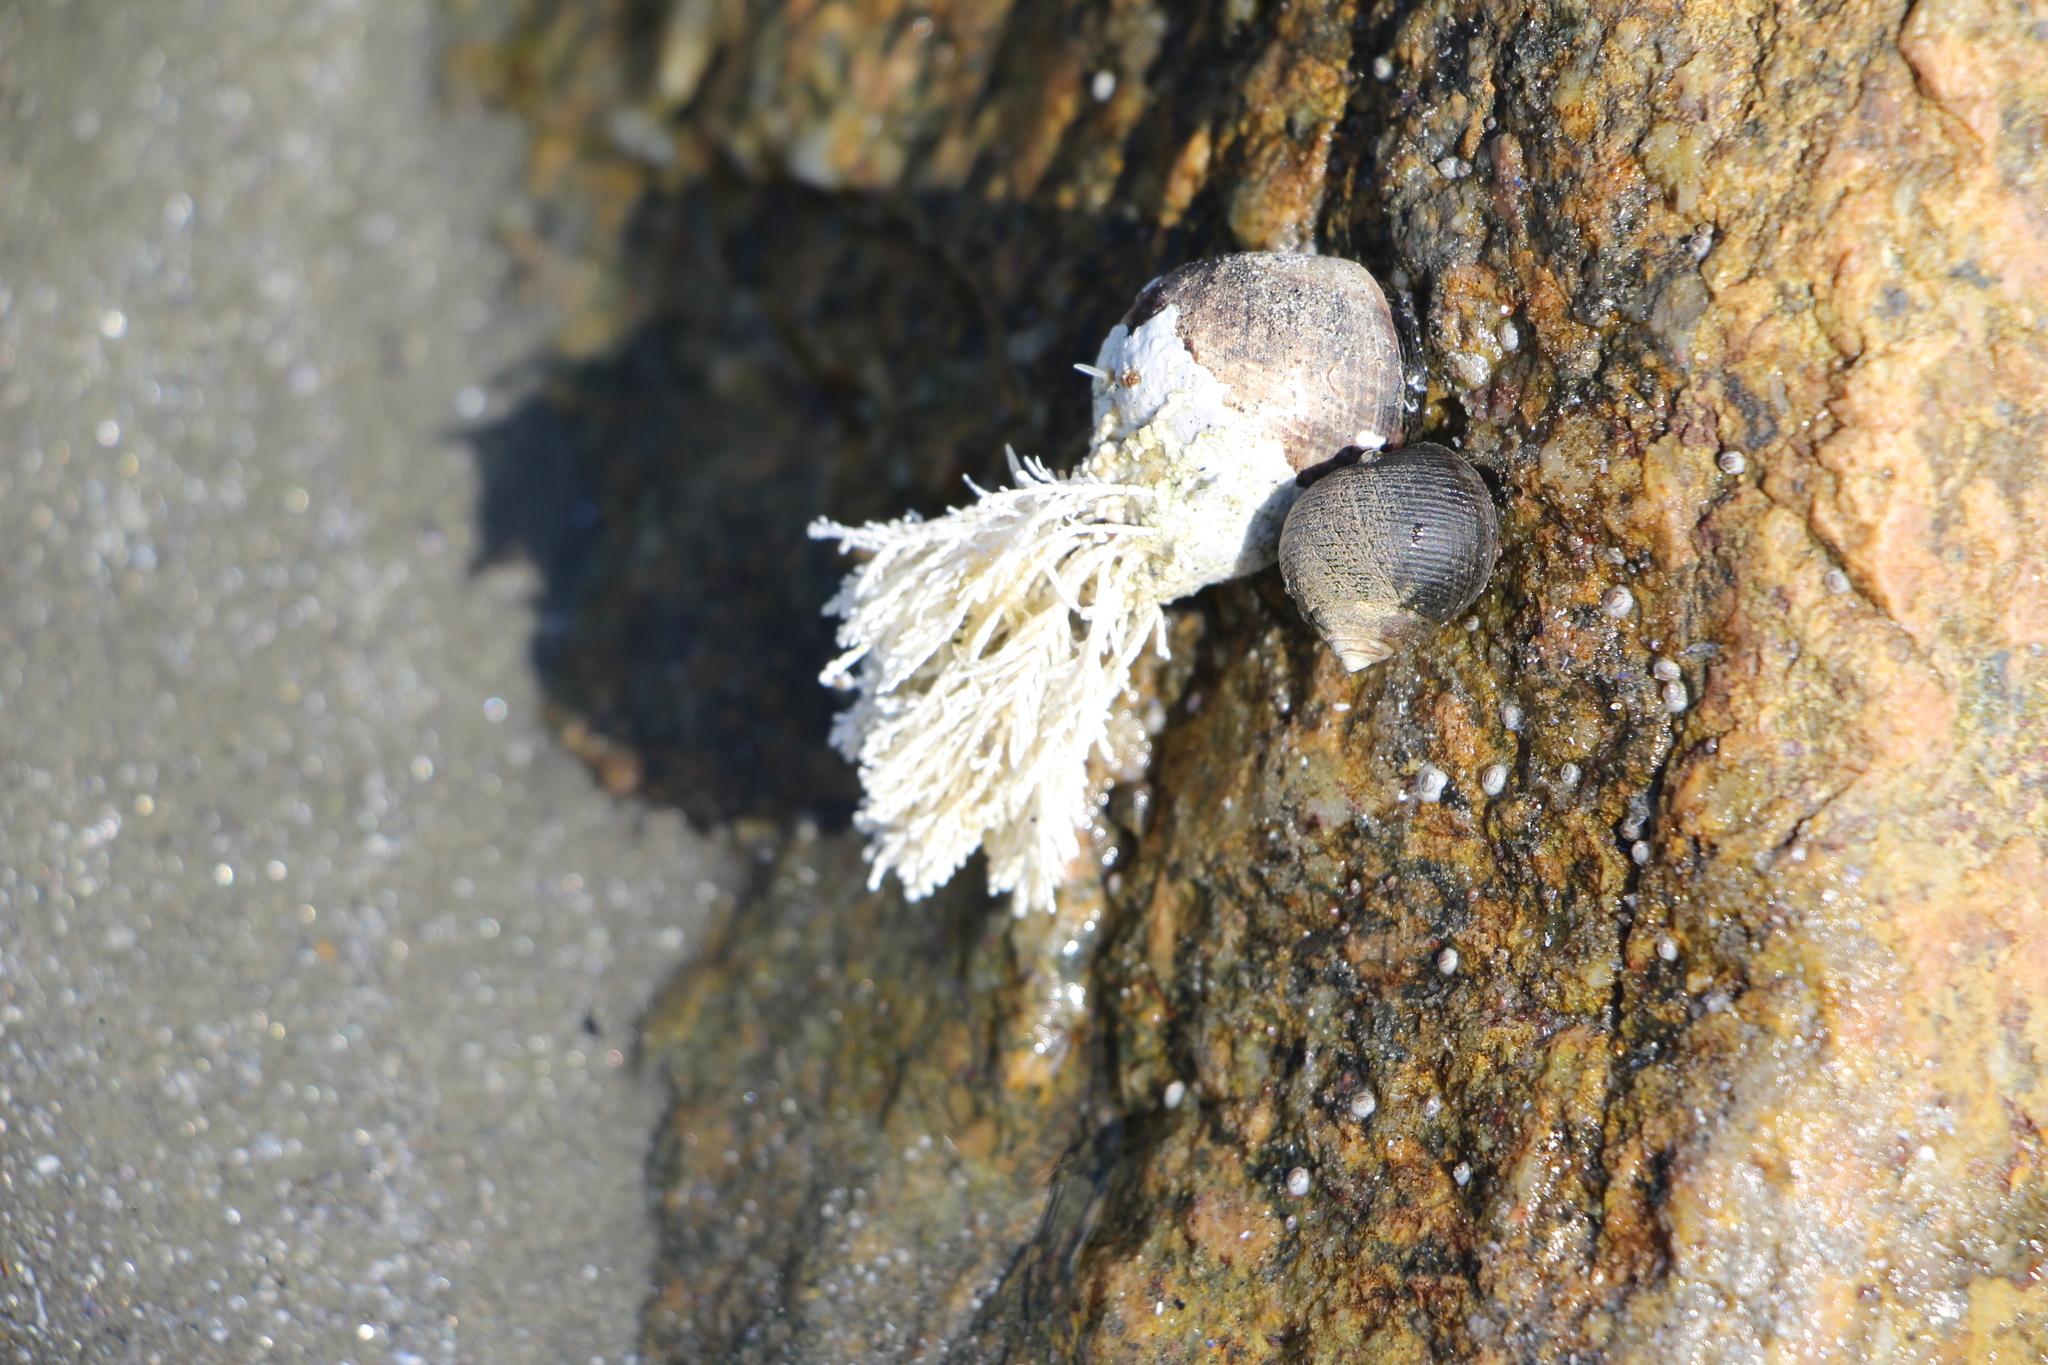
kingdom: Plantae
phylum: Rhodophyta
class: Florideophyceae
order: Corallinales
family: Corallinaceae
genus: Corallina
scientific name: Corallina officinalis
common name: Coral weed
